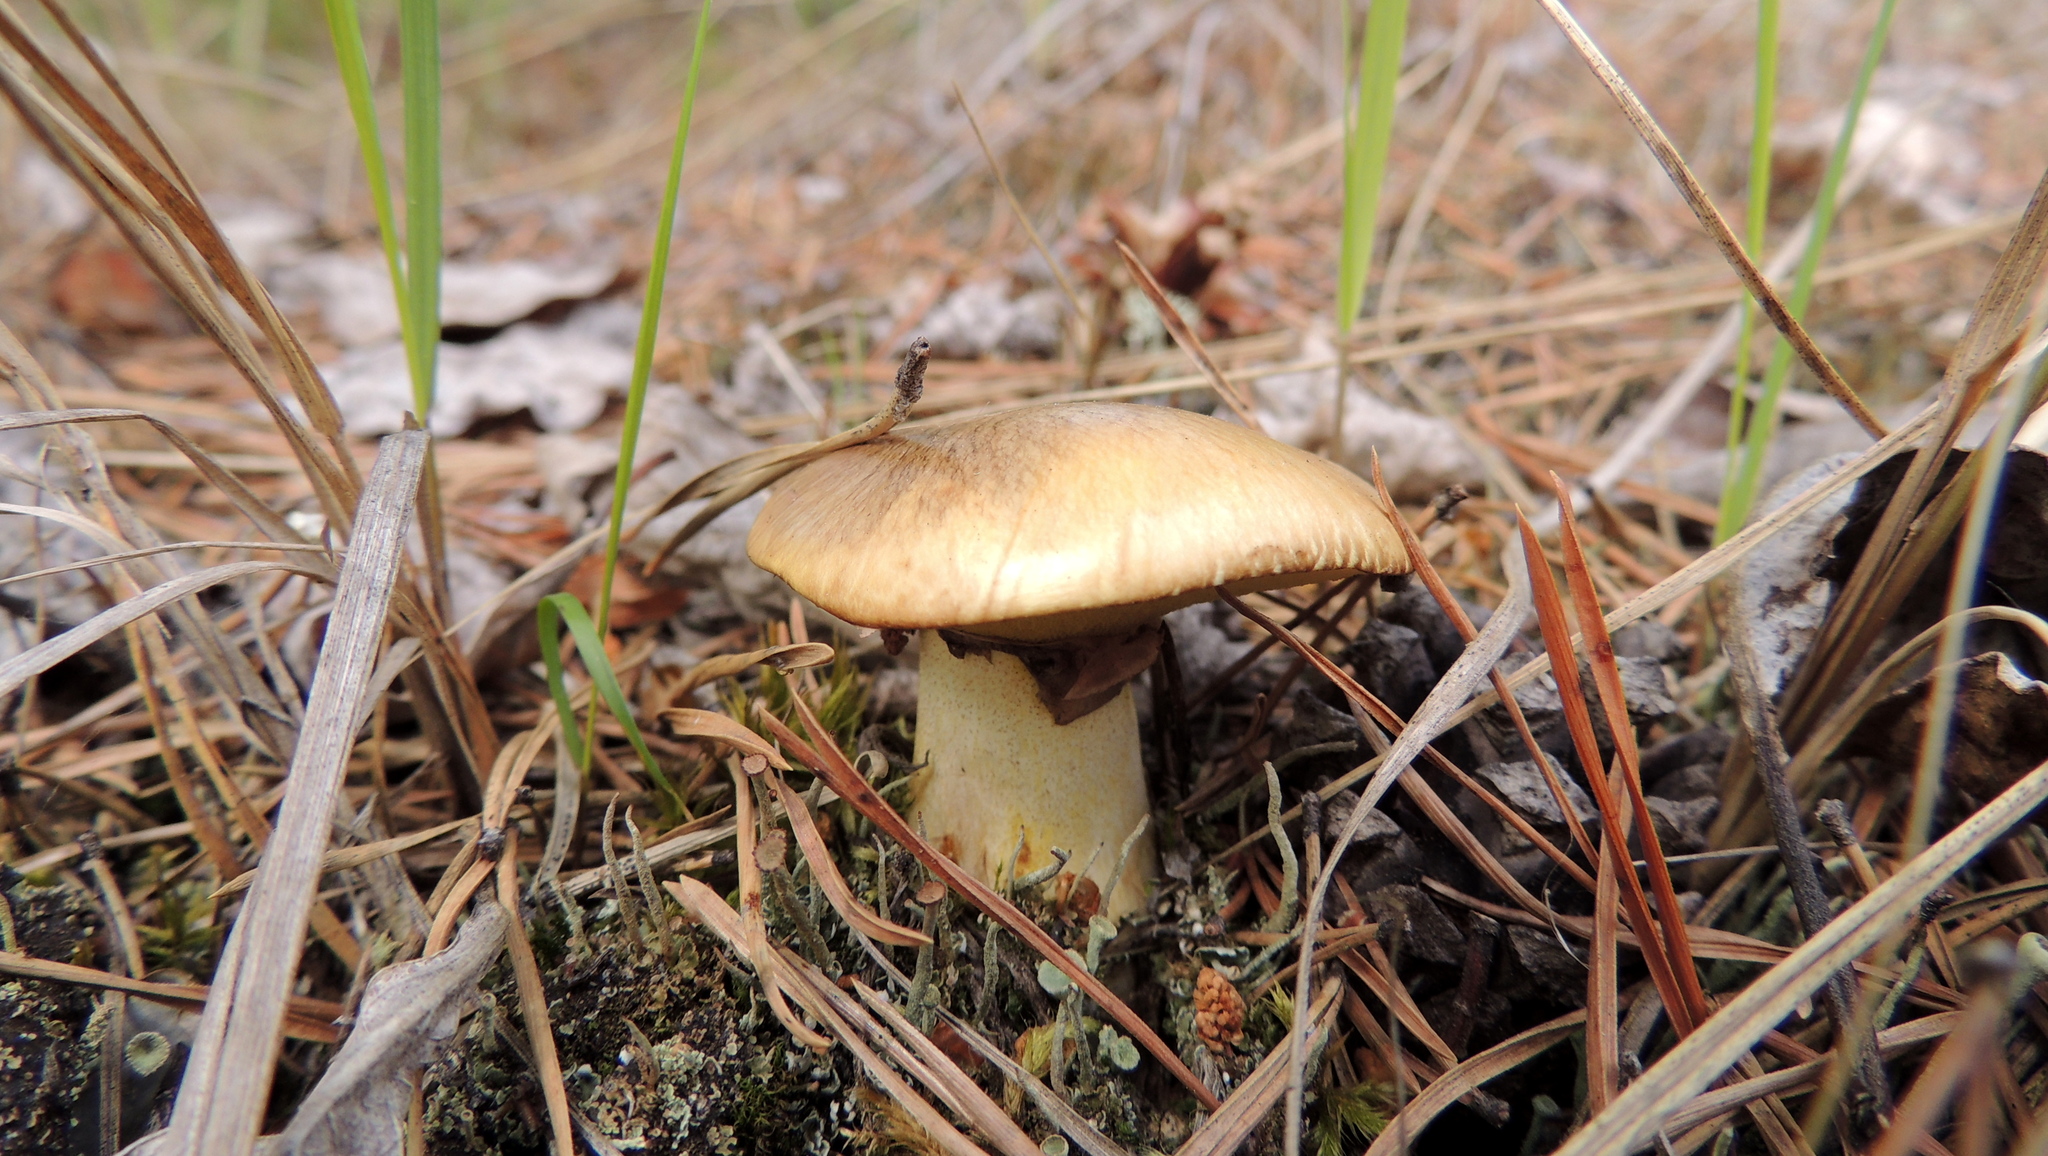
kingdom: Fungi
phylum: Basidiomycota
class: Agaricomycetes
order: Boletales
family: Suillaceae
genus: Suillus
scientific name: Suillus luteus
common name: Slippery jack
